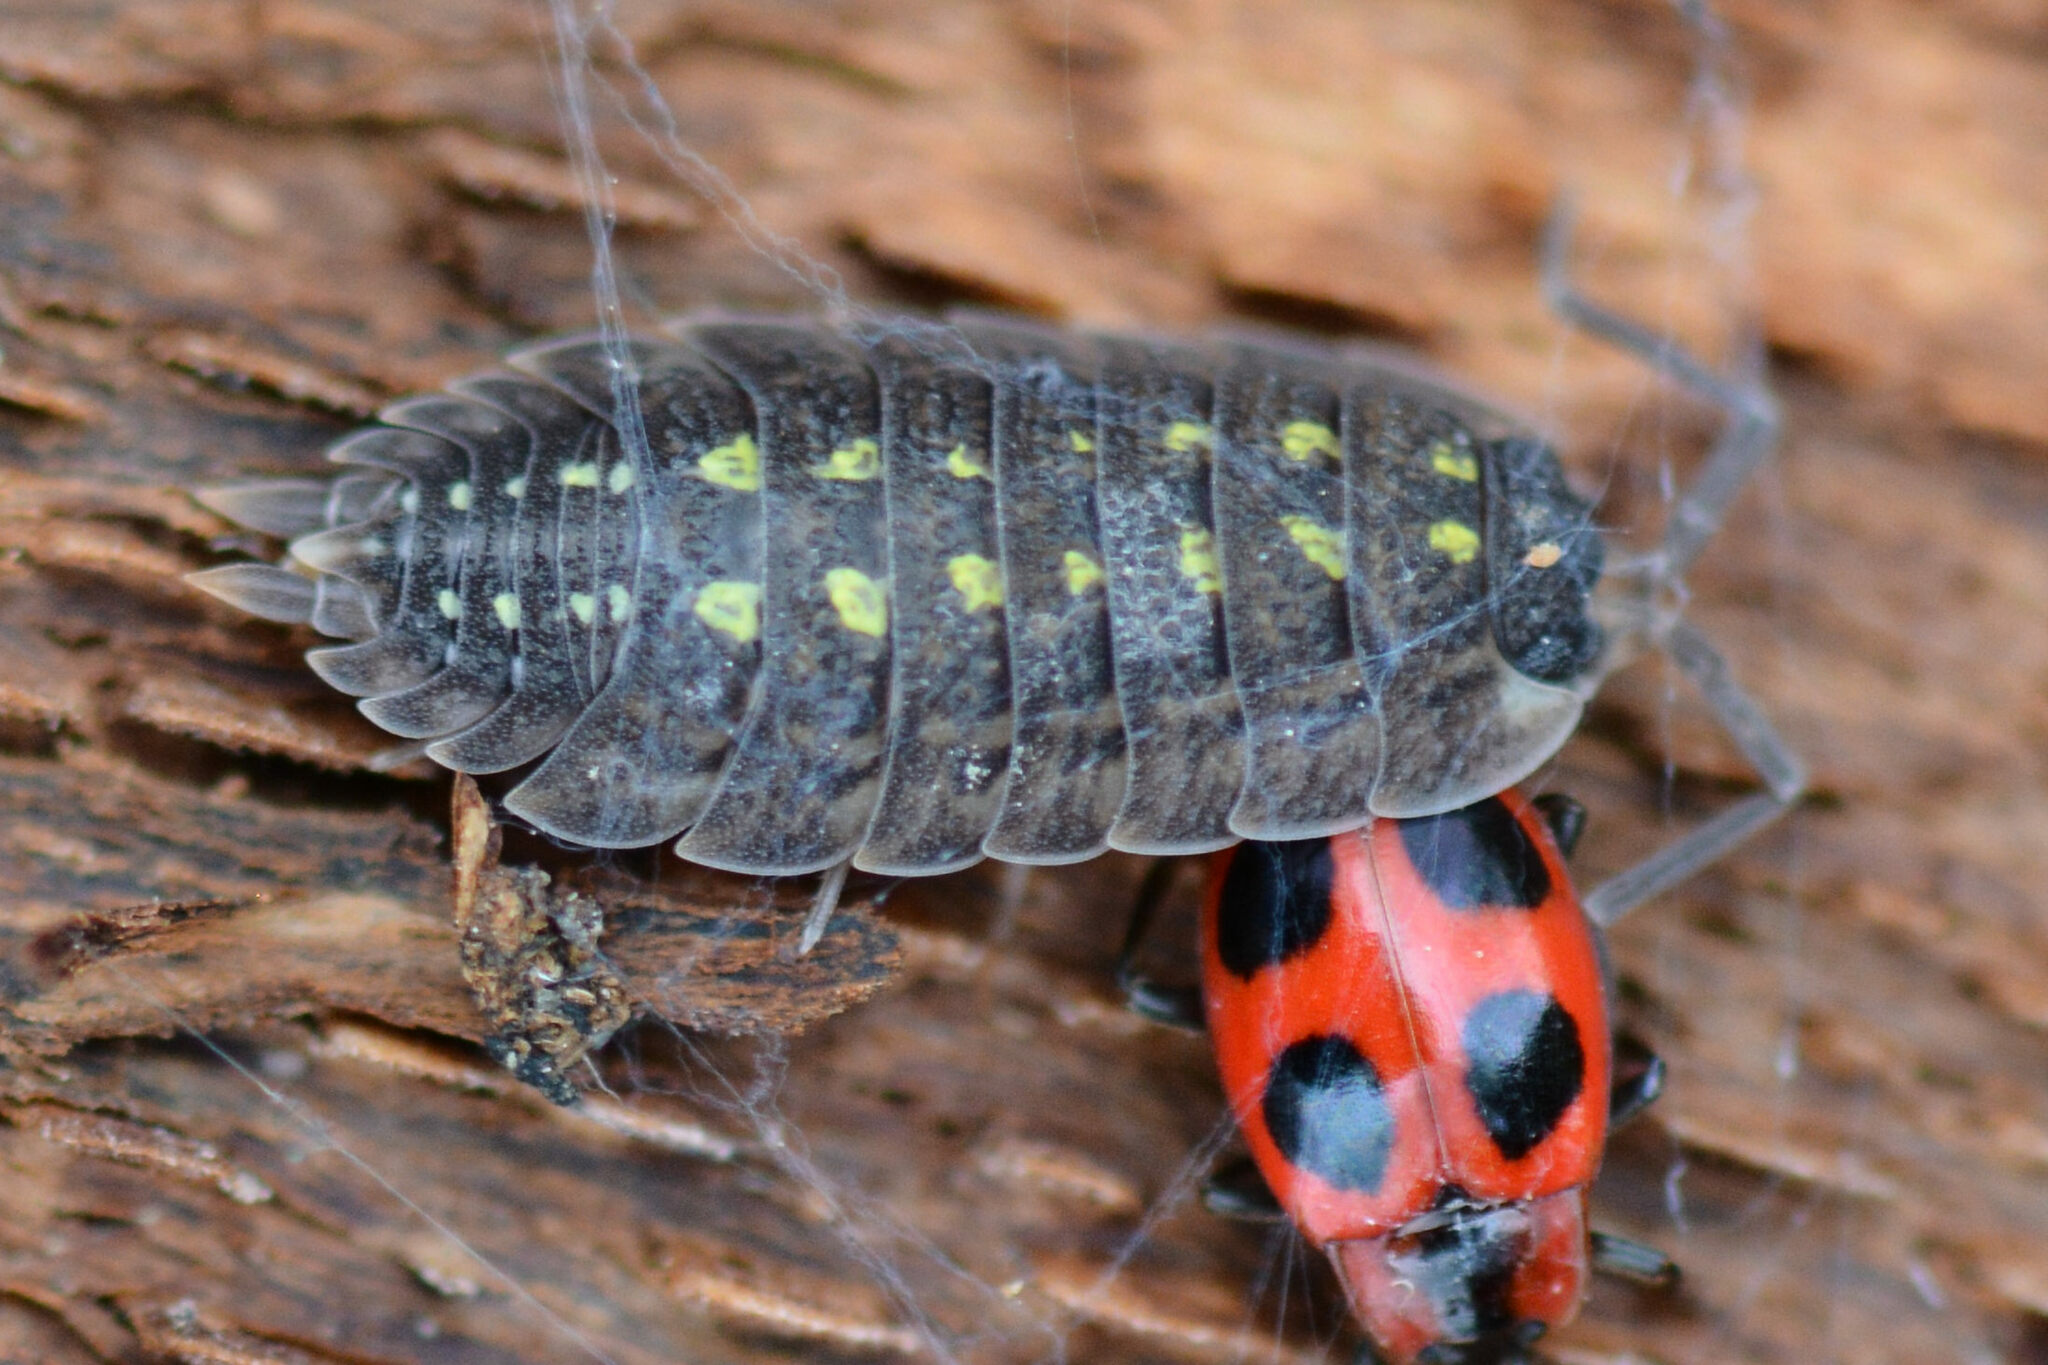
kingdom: Animalia
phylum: Arthropoda
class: Malacostraca
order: Isopoda
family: Porcellionidae
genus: Porcellio
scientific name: Porcellio spinicornis
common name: Painted woodlouse
